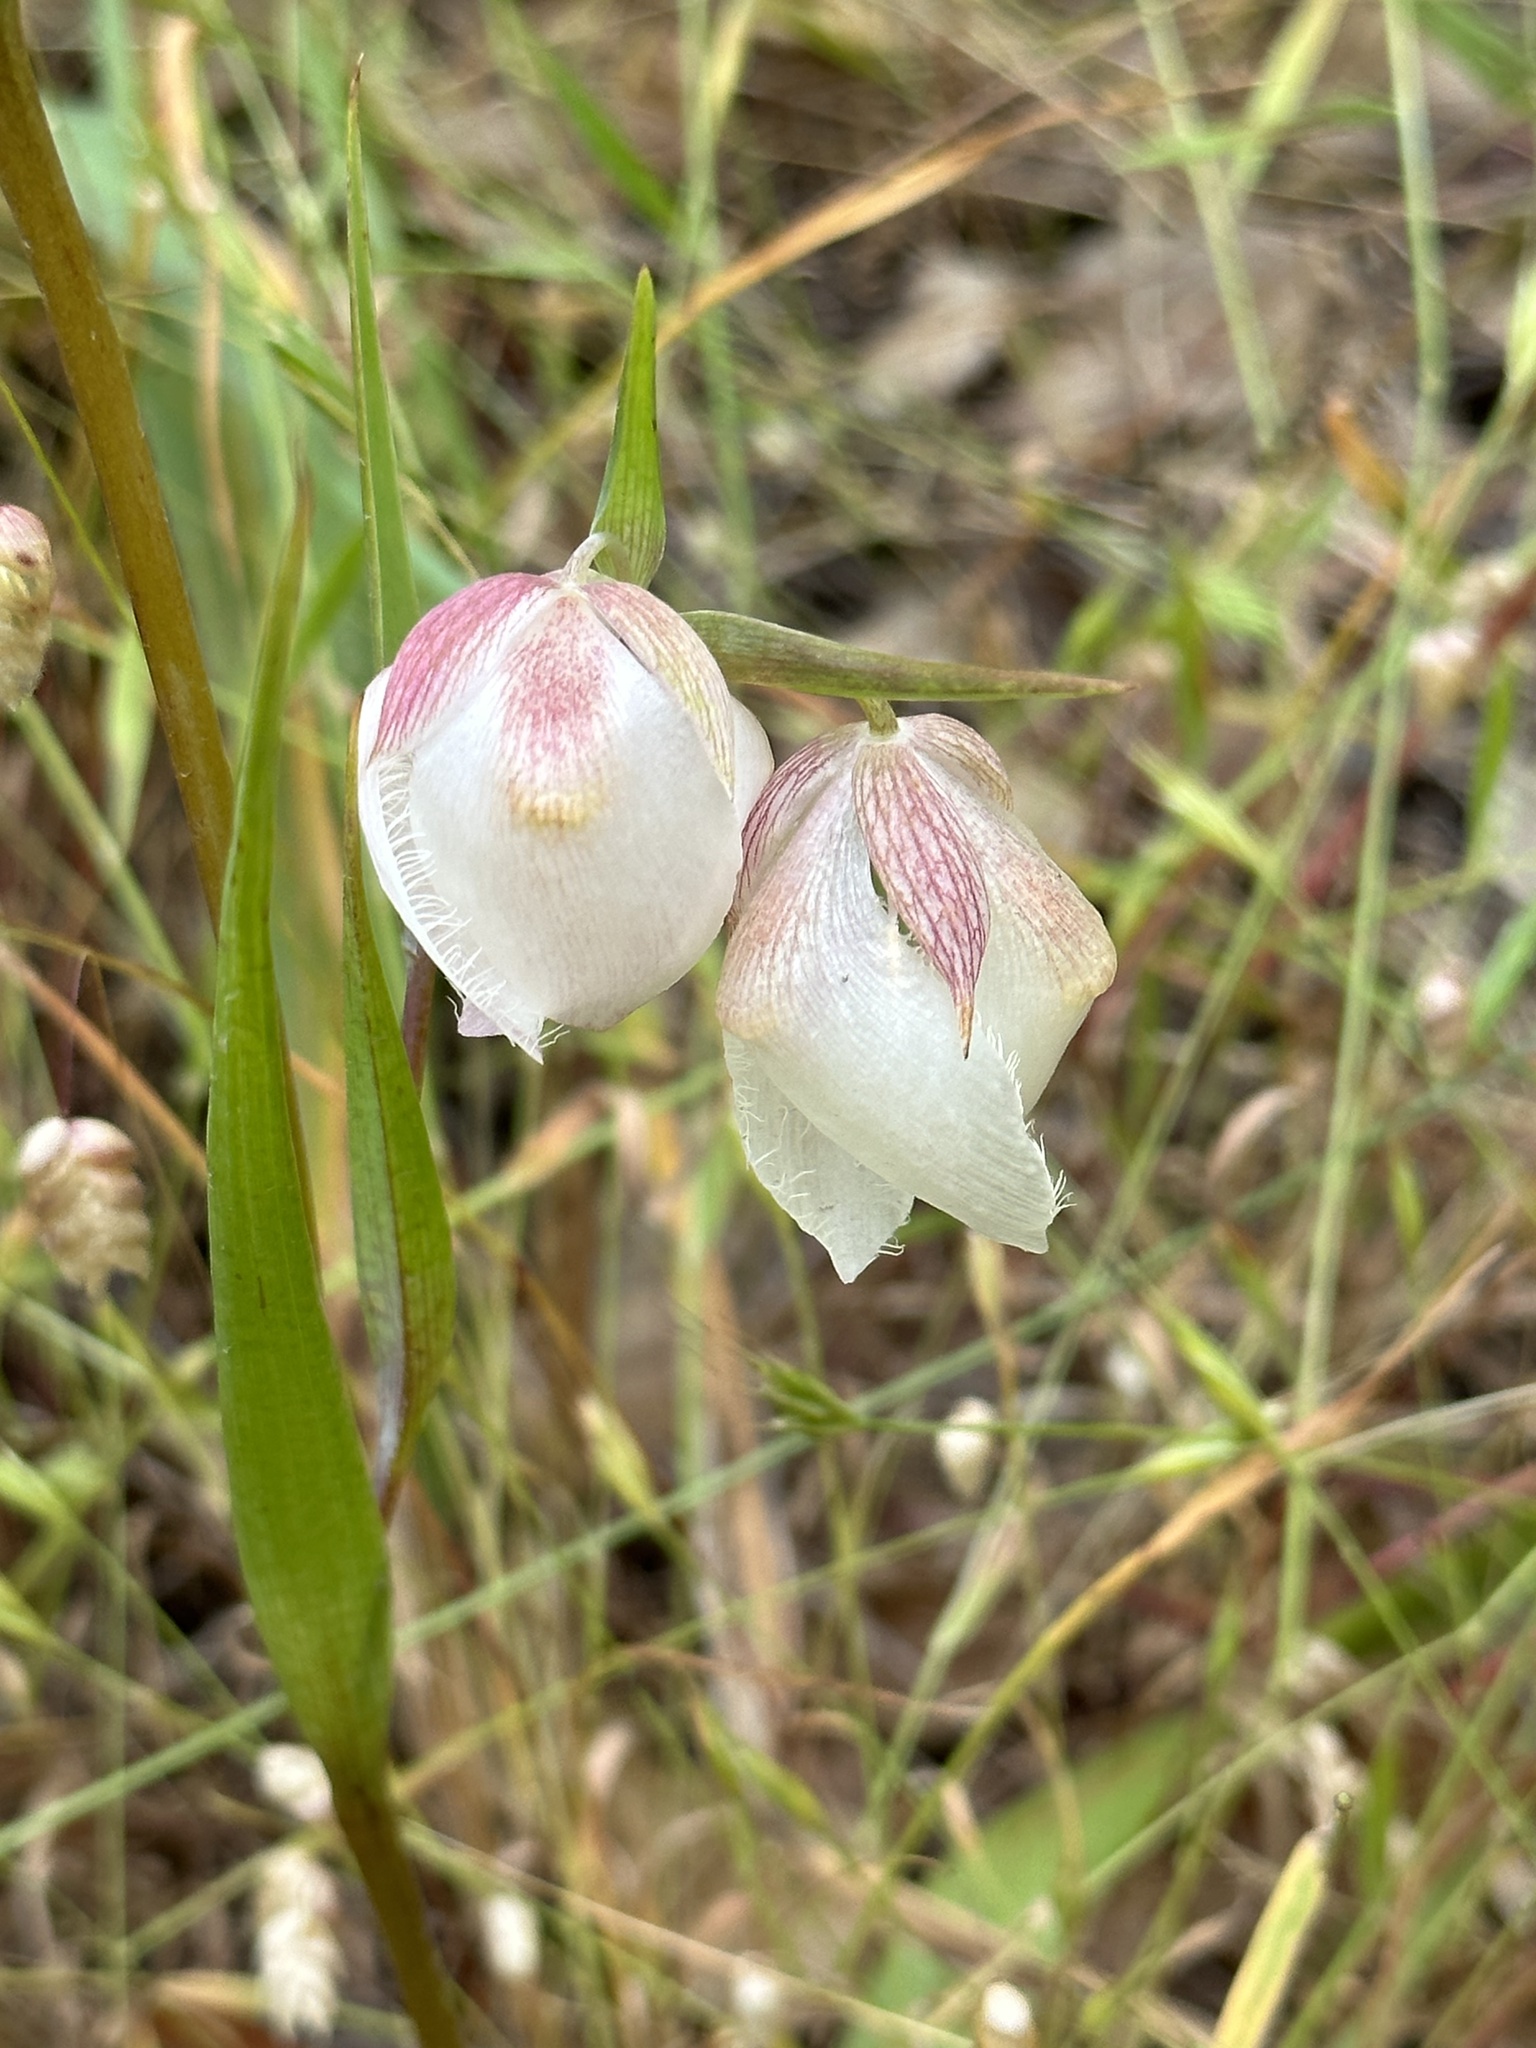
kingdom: Plantae
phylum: Tracheophyta
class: Liliopsida
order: Liliales
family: Liliaceae
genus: Calochortus
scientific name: Calochortus albus
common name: Fairy-lantern
